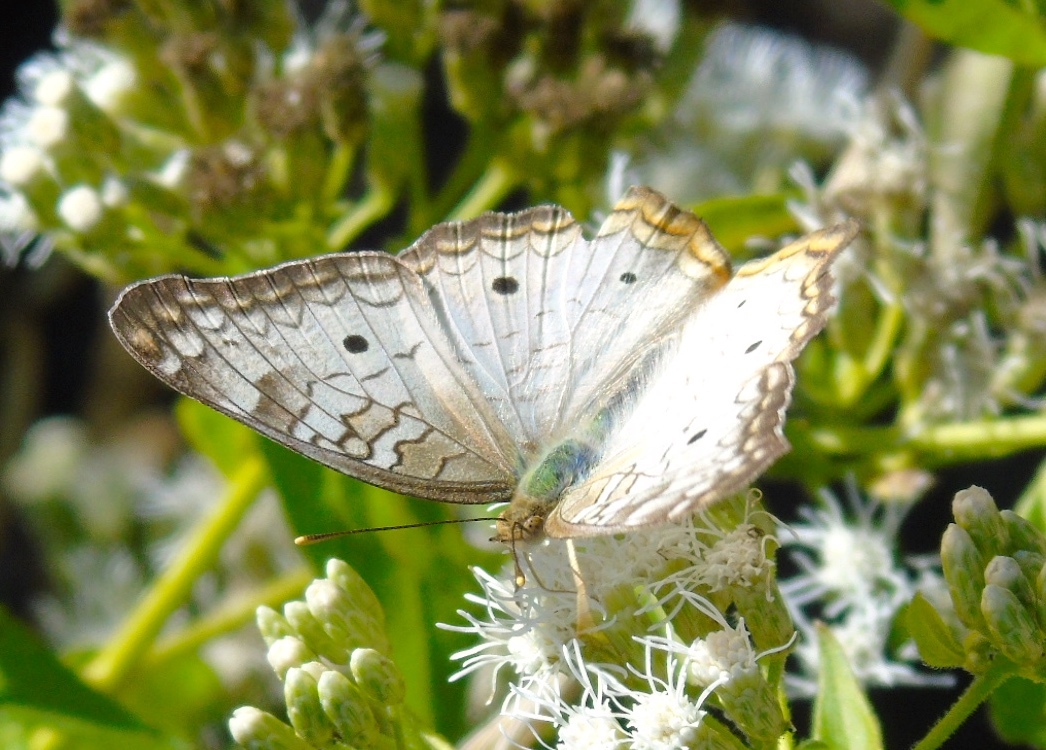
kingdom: Animalia
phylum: Arthropoda
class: Insecta
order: Lepidoptera
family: Nymphalidae
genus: Anartia
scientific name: Anartia jatrophae
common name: White peacock
